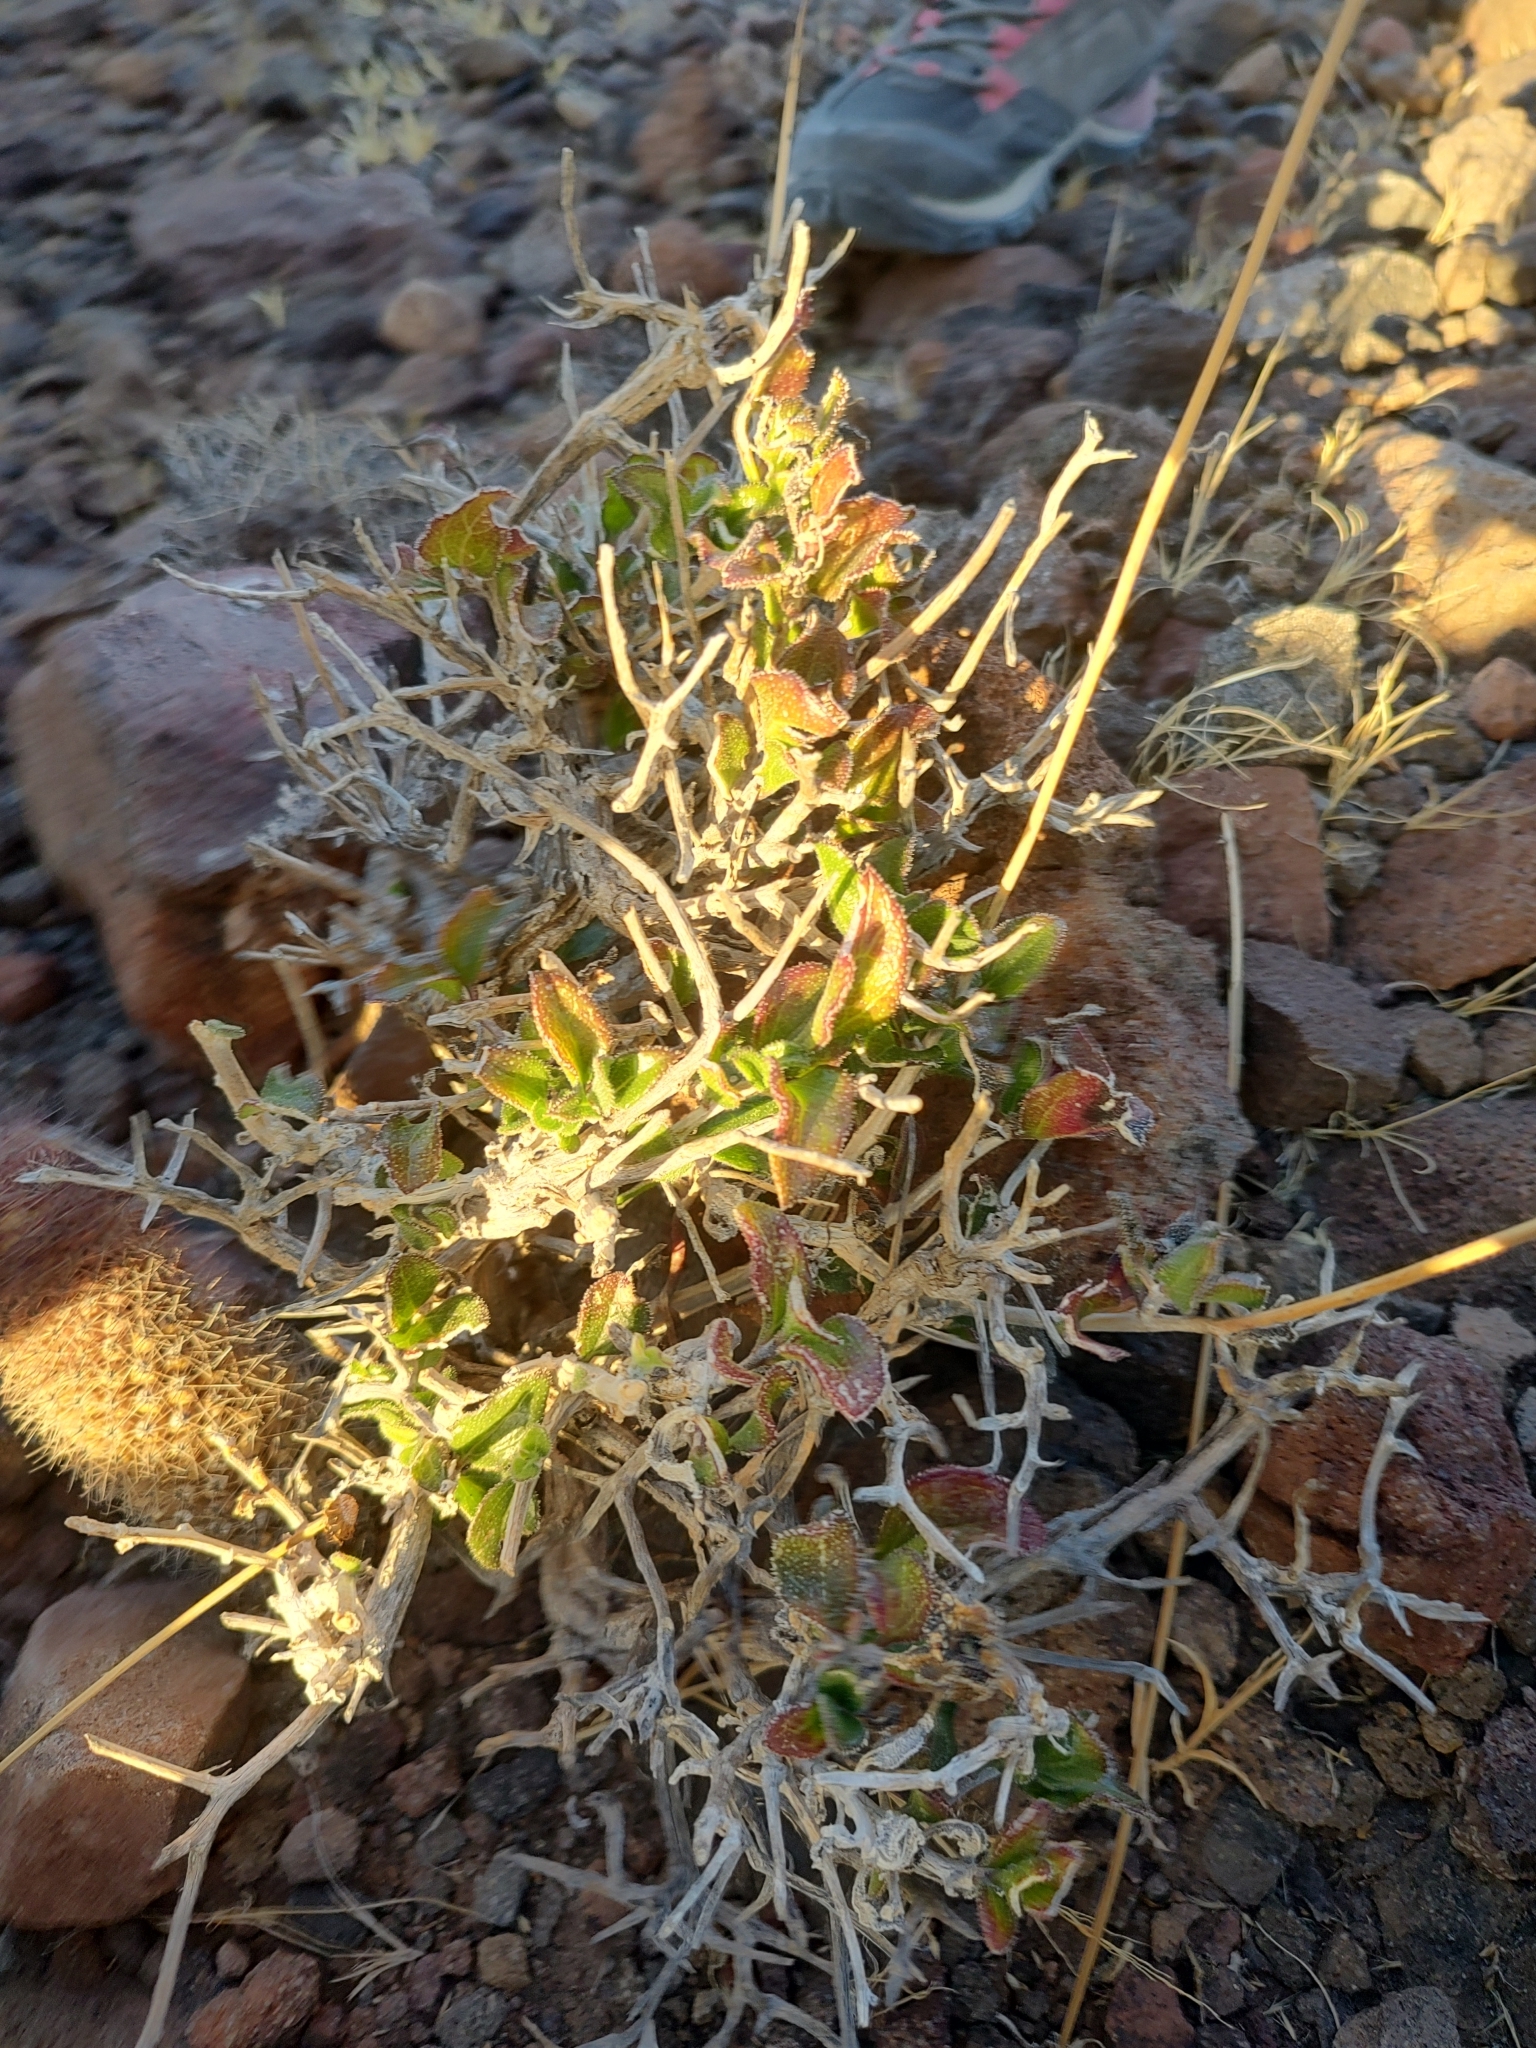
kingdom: Plantae
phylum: Tracheophyta
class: Magnoliopsida
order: Asterales
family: Asteraceae
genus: Encelia
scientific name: Encelia balandra
